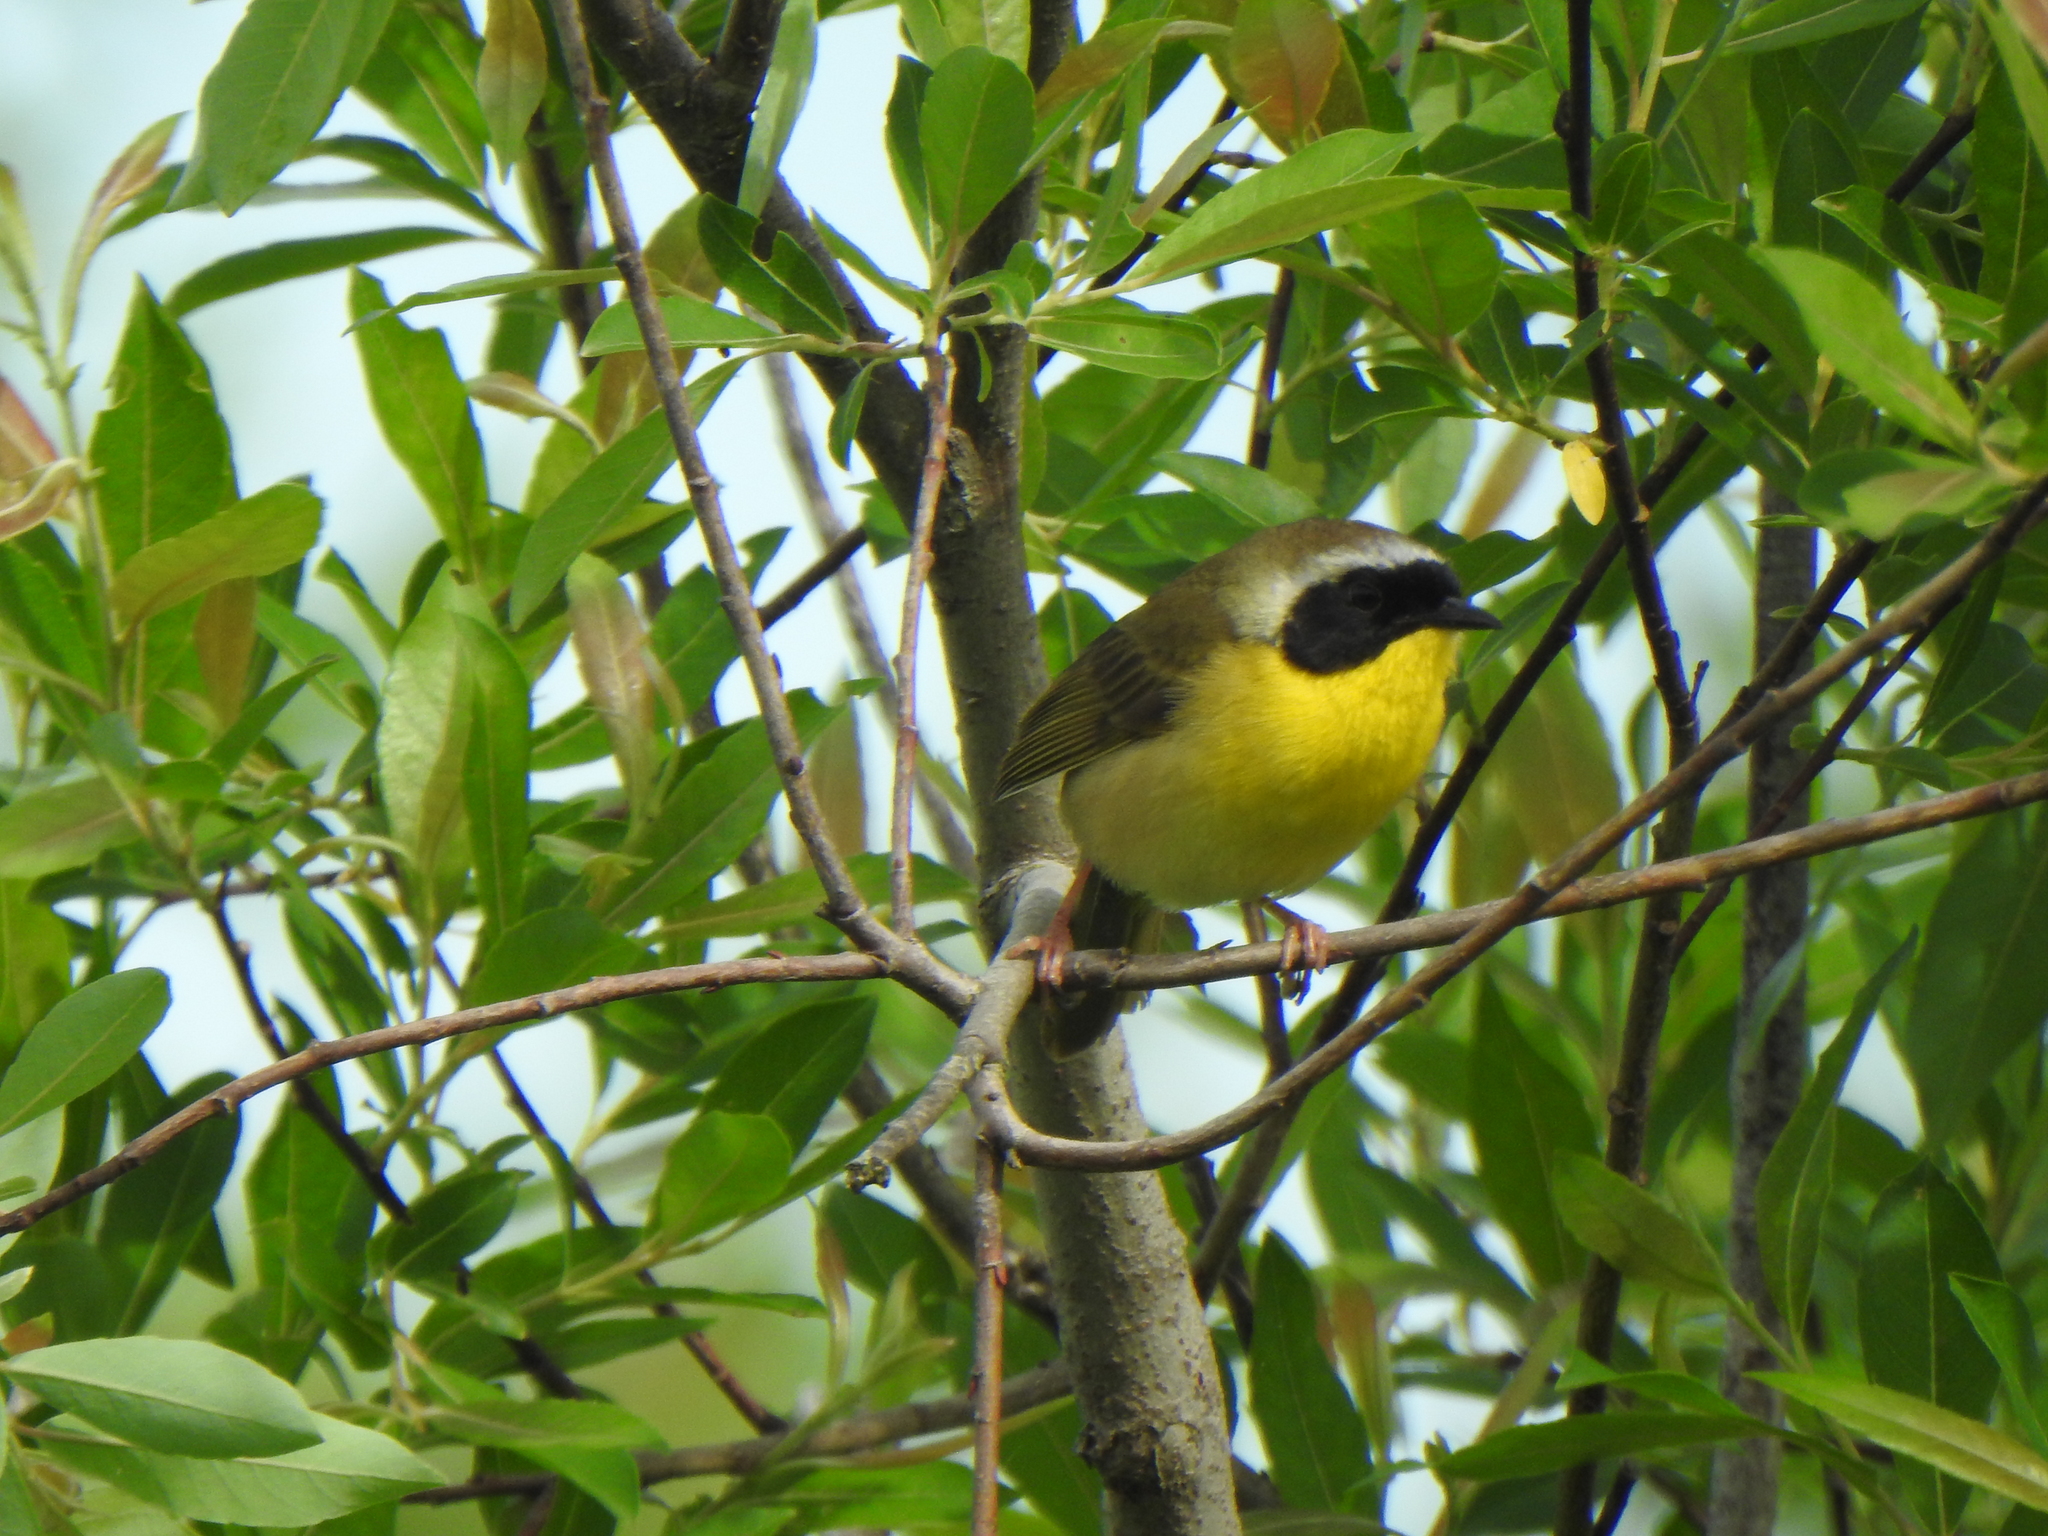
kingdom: Animalia
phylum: Chordata
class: Aves
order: Passeriformes
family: Parulidae
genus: Geothlypis
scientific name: Geothlypis trichas
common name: Common yellowthroat
